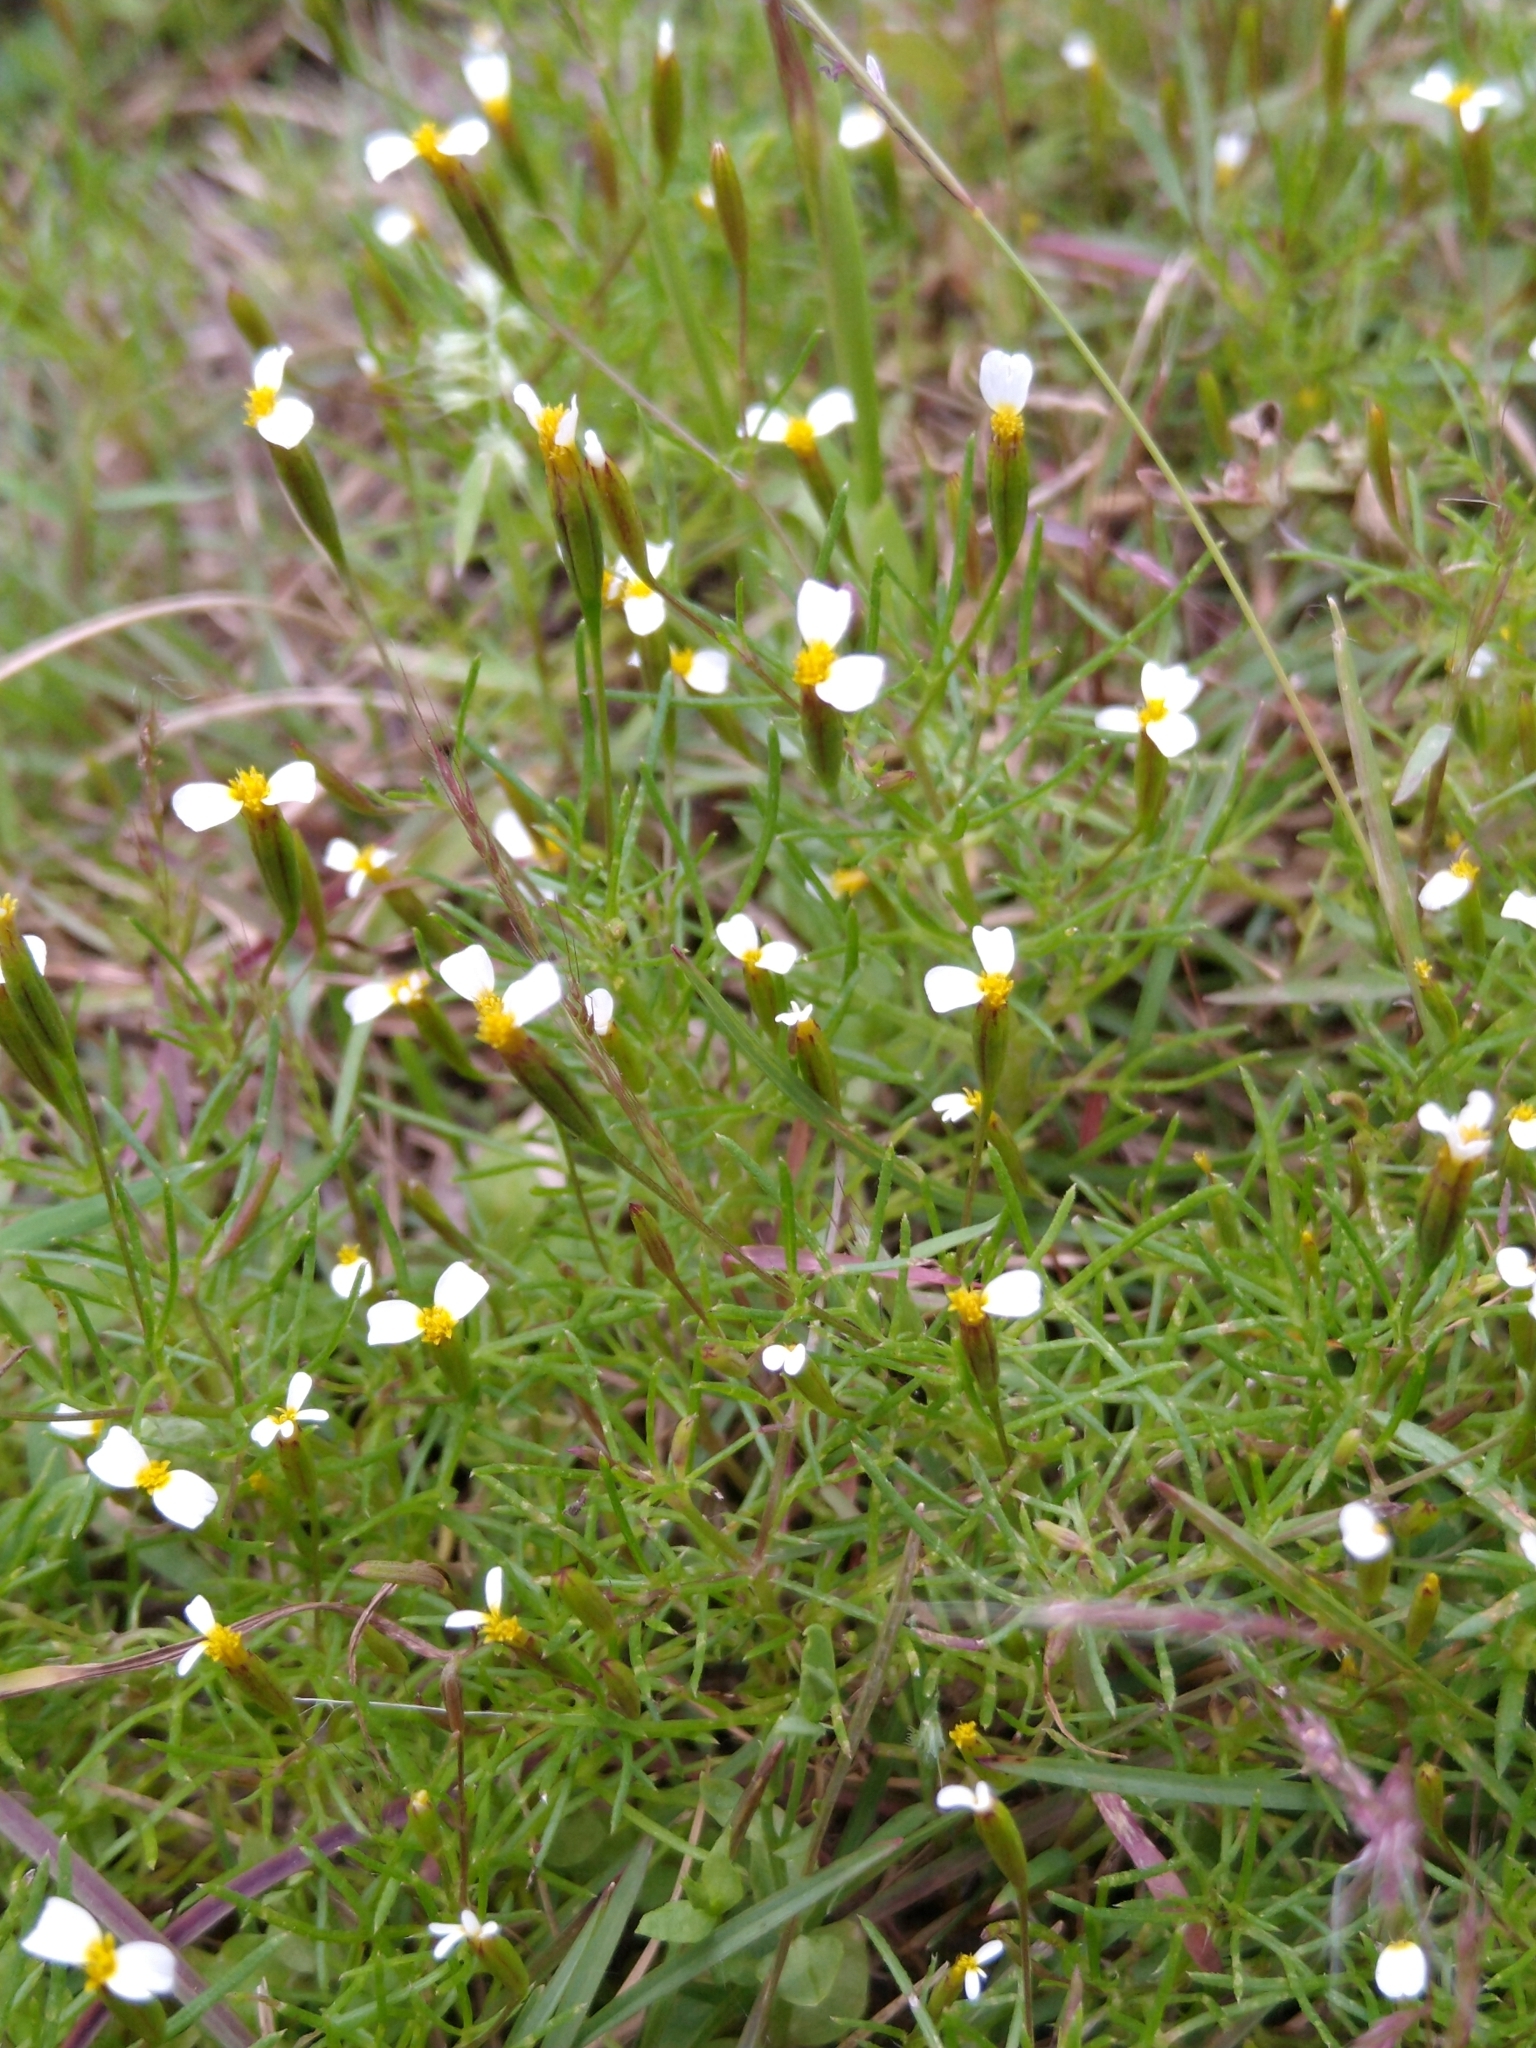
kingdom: Plantae
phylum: Tracheophyta
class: Magnoliopsida
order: Asterales
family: Asteraceae
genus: Tagetes
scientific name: Tagetes micrantha
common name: Licorice marigold
